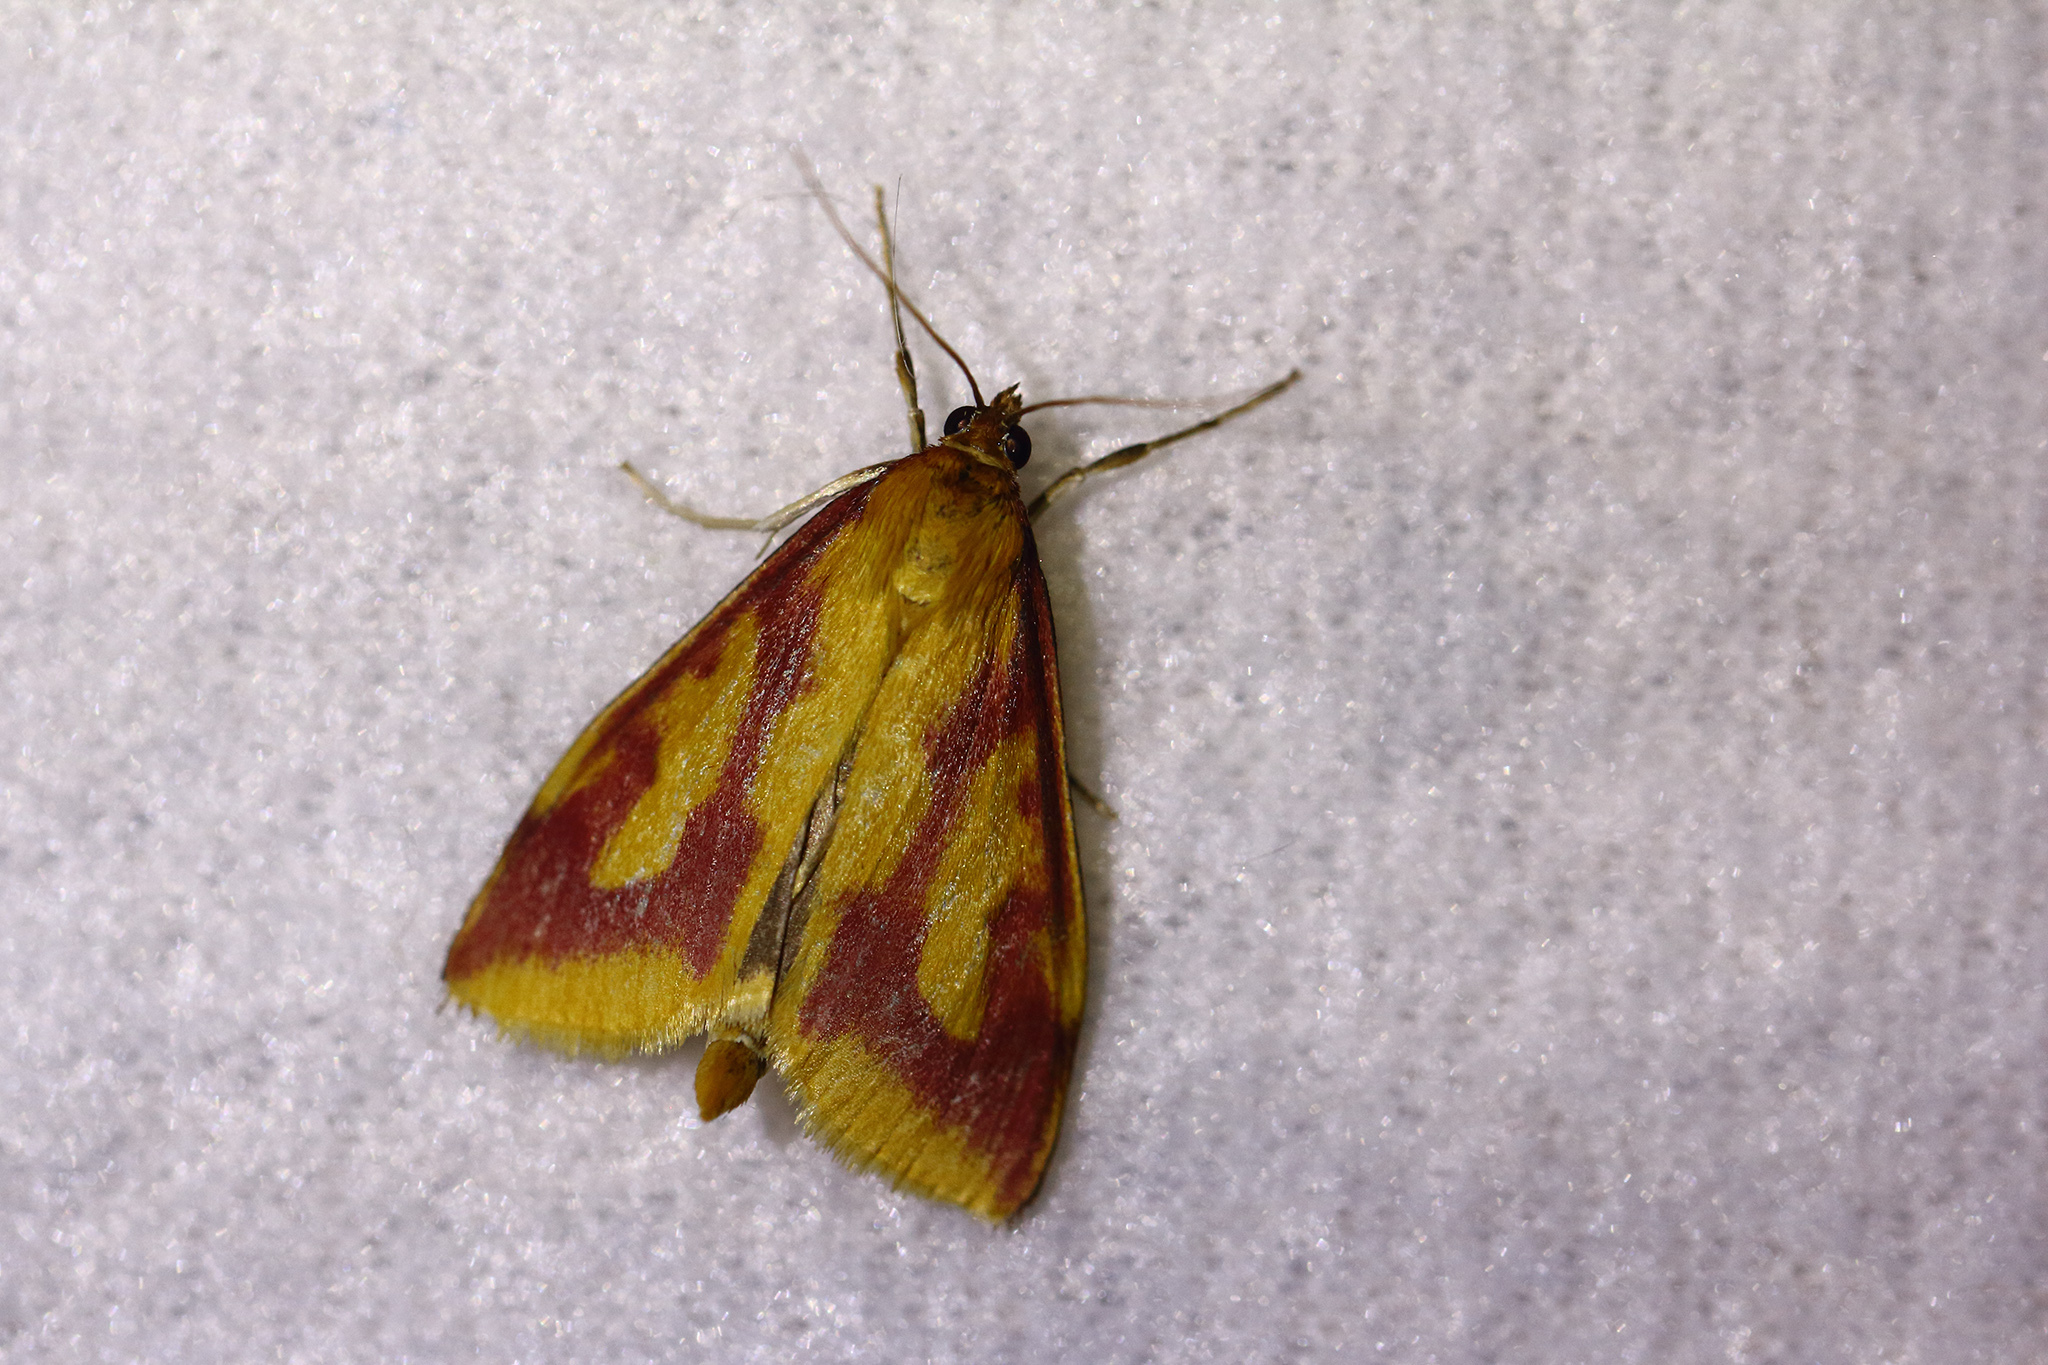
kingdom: Animalia
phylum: Arthropoda
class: Insecta
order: Lepidoptera
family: Crambidae
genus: Ostrinia
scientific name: Ostrinia palustralis
